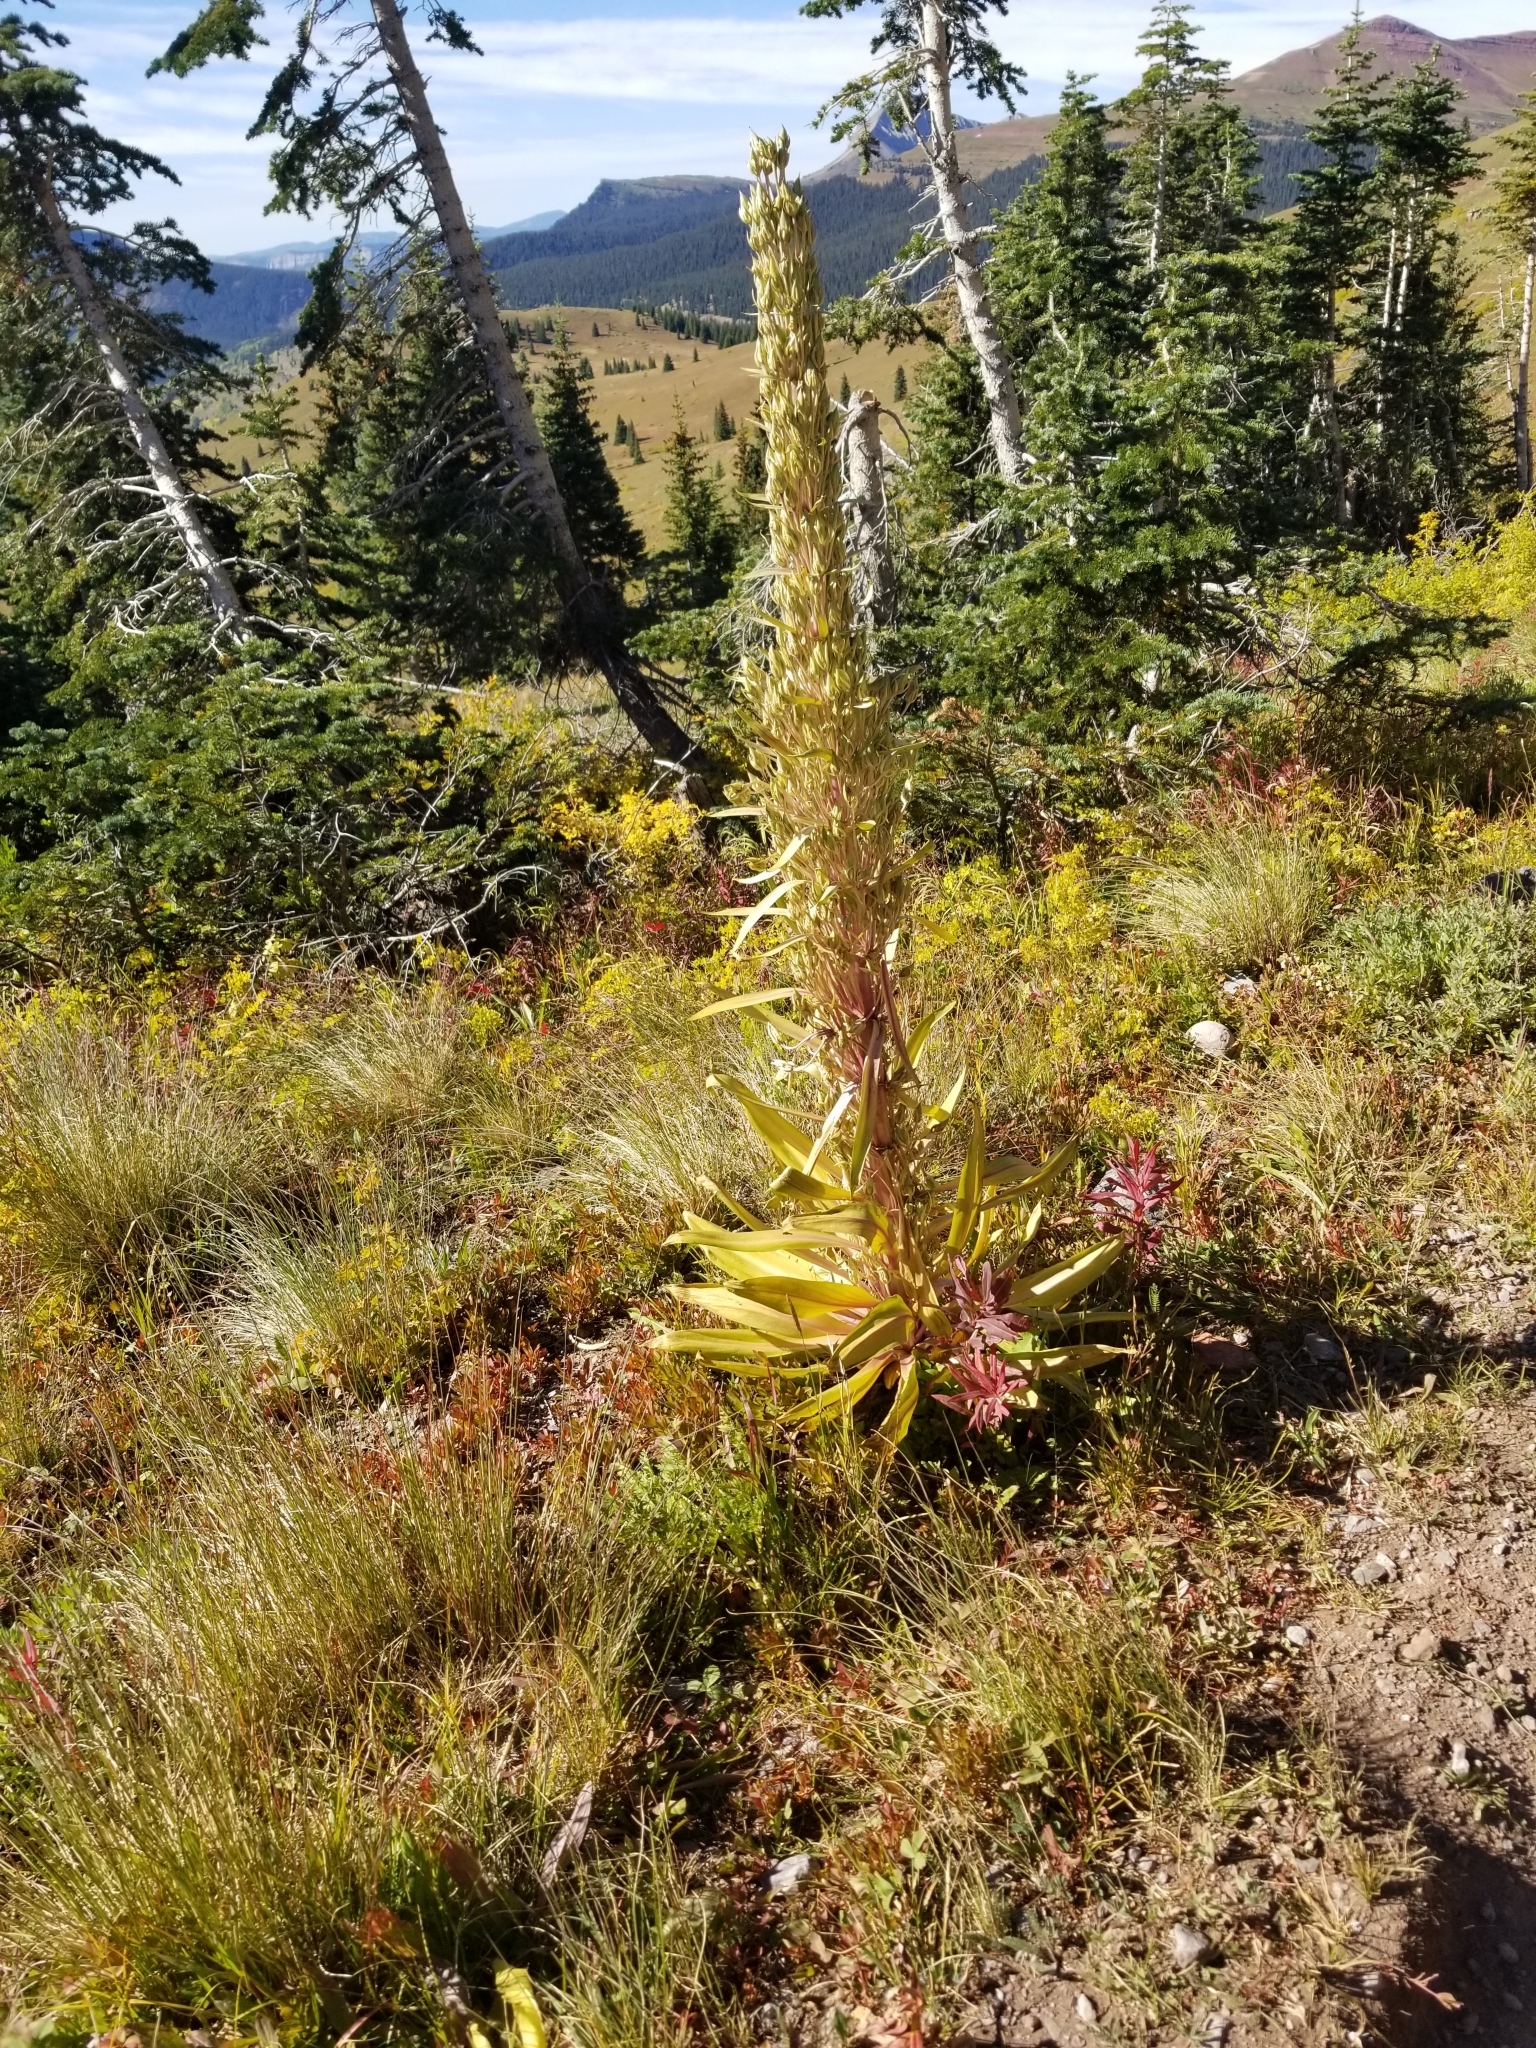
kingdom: Plantae
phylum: Tracheophyta
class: Magnoliopsida
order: Gentianales
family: Gentianaceae
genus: Frasera
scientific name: Frasera speciosa
